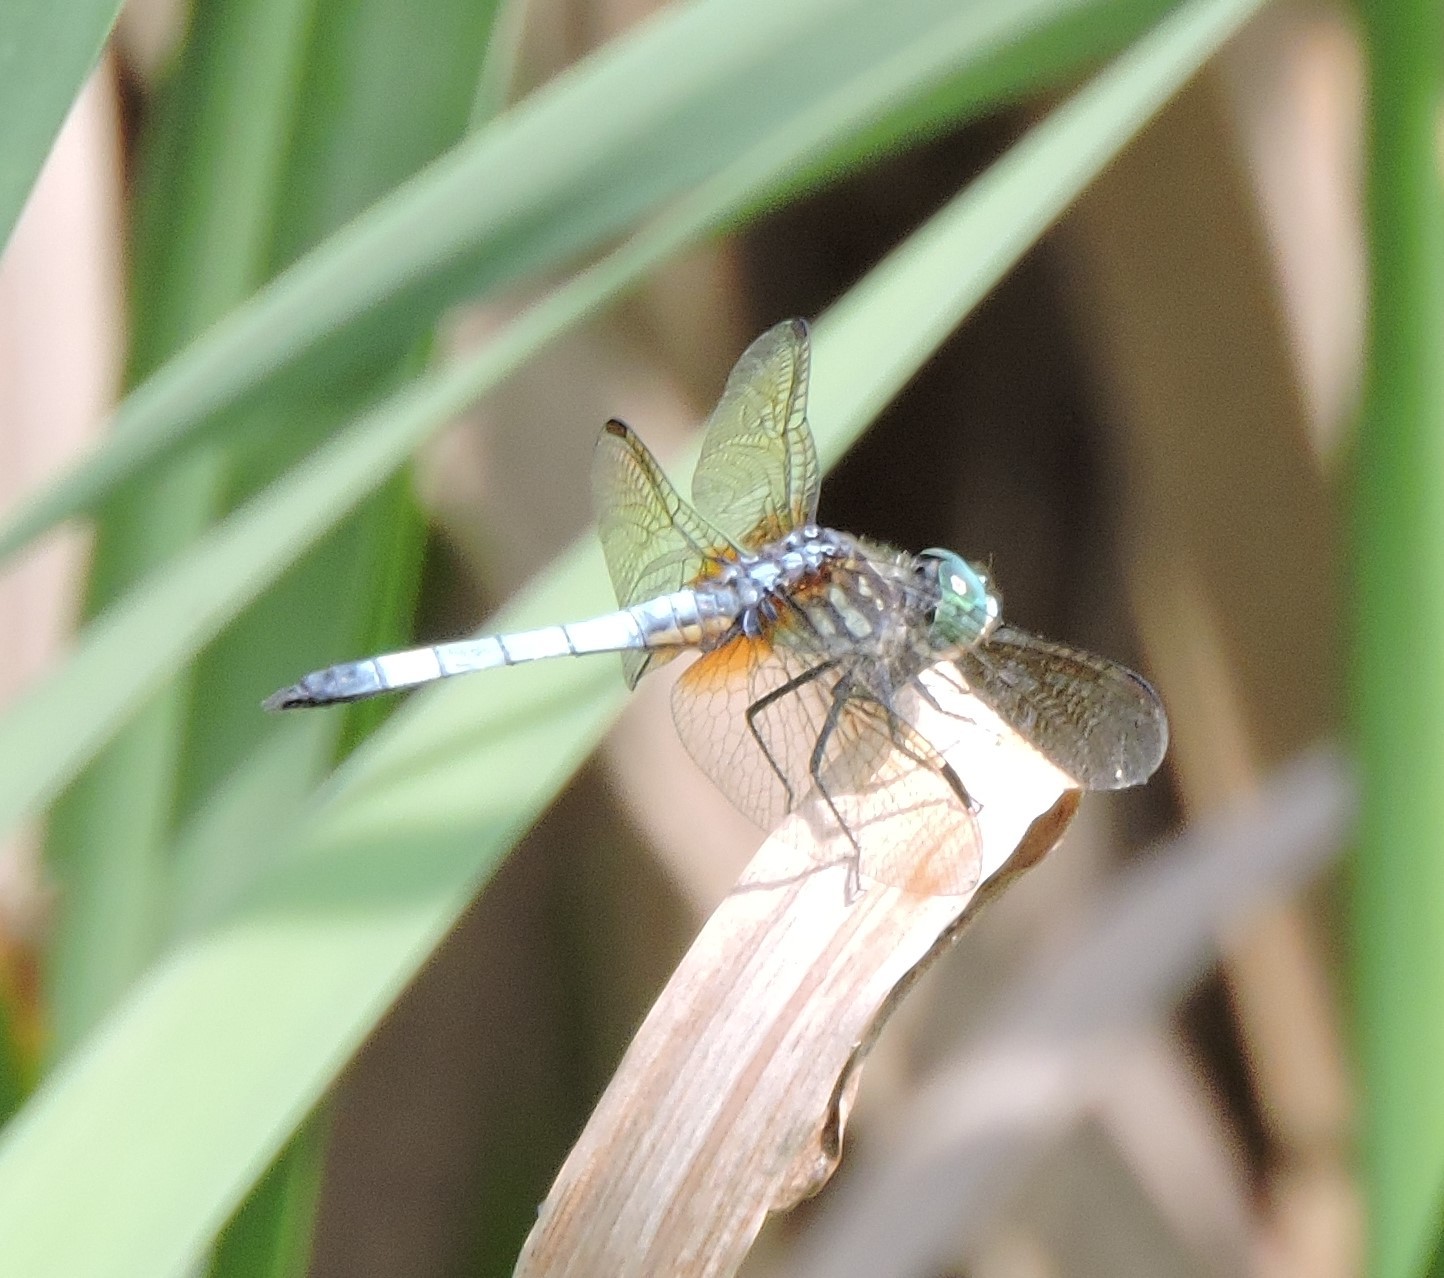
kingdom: Animalia
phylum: Arthropoda
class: Insecta
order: Odonata
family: Libellulidae
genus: Pachydiplax
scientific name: Pachydiplax longipennis
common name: Blue dasher
